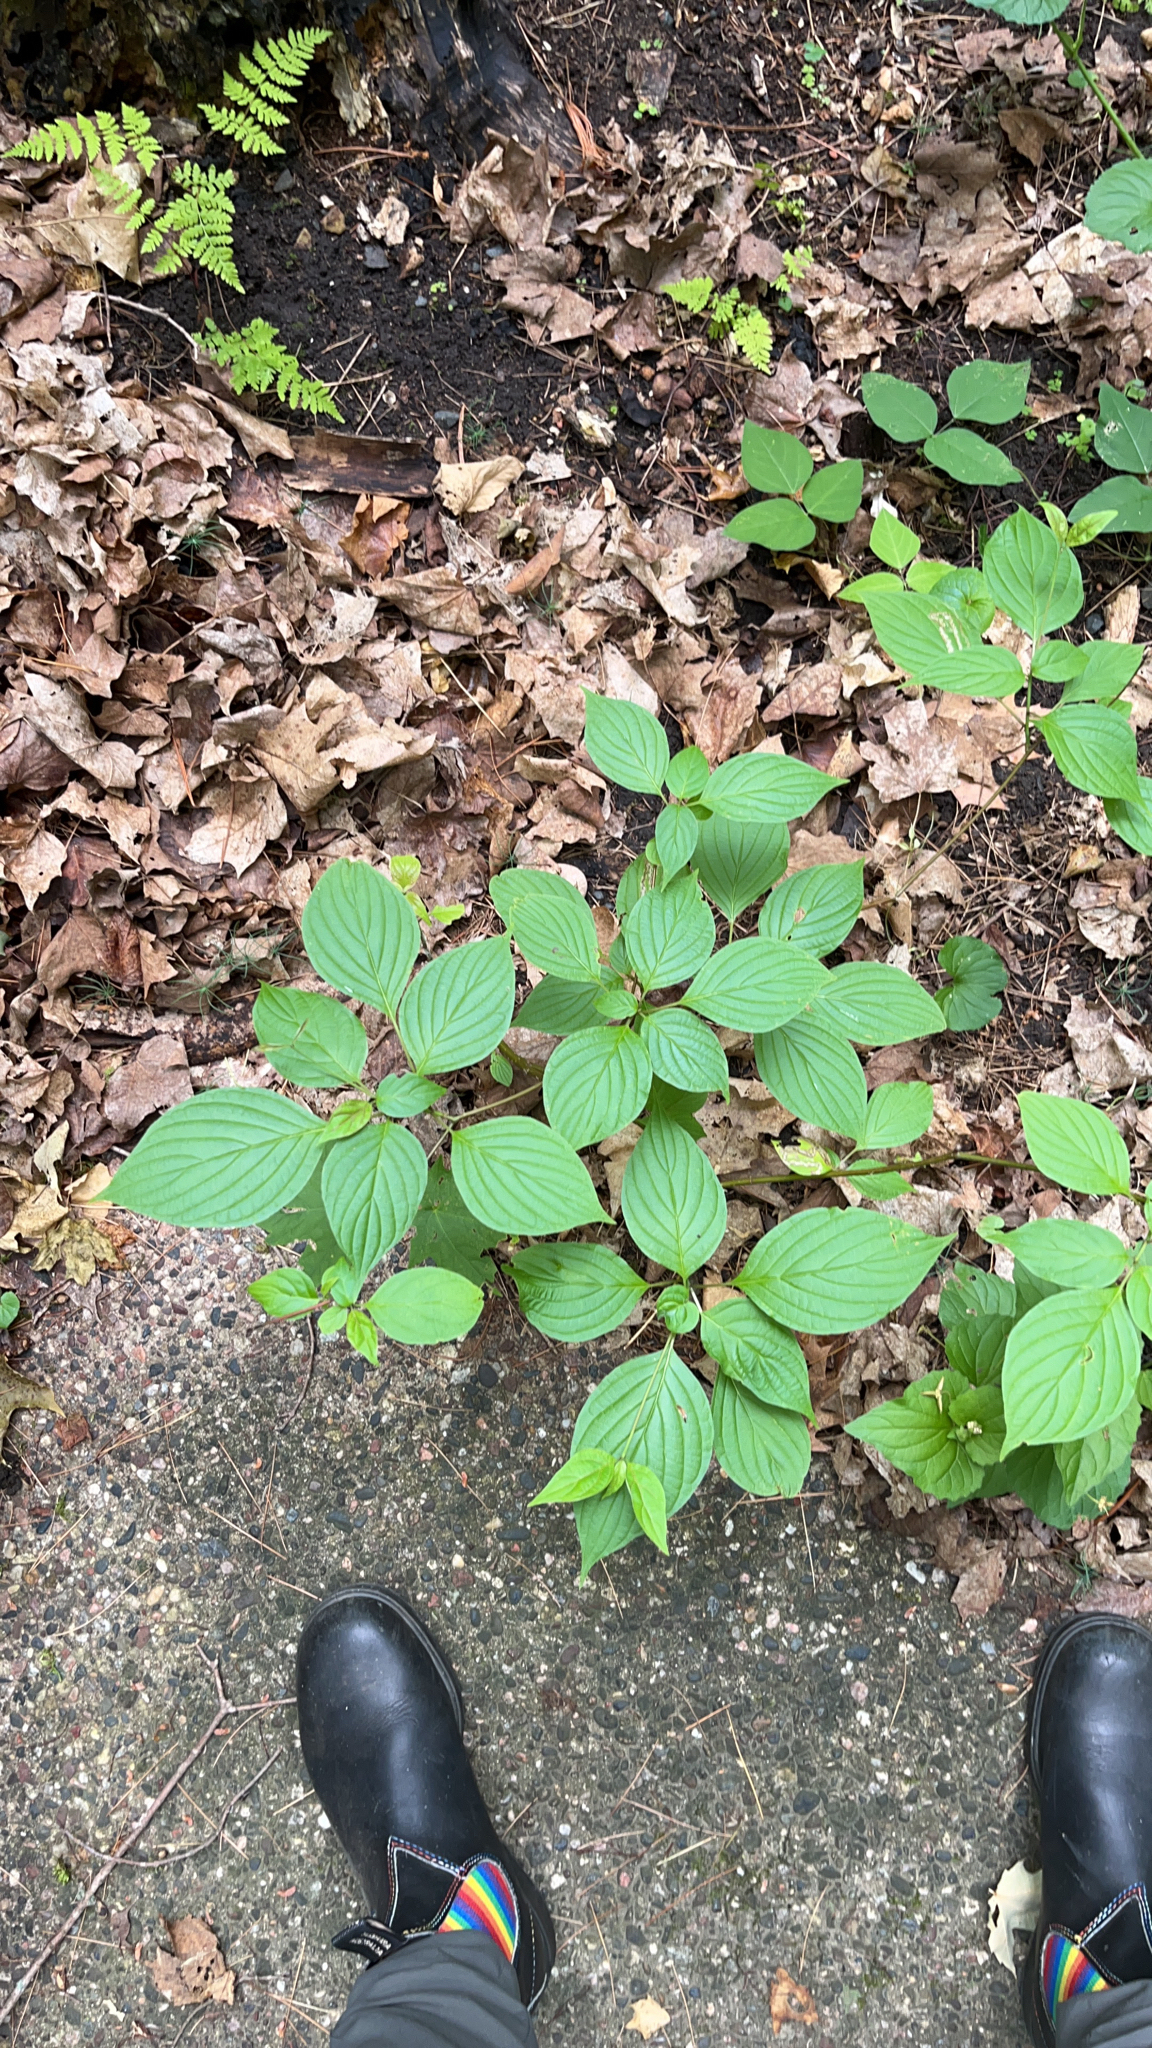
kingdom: Plantae
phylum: Tracheophyta
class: Magnoliopsida
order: Cornales
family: Cornaceae
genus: Cornus
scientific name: Cornus alternifolia
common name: Pagoda dogwood
